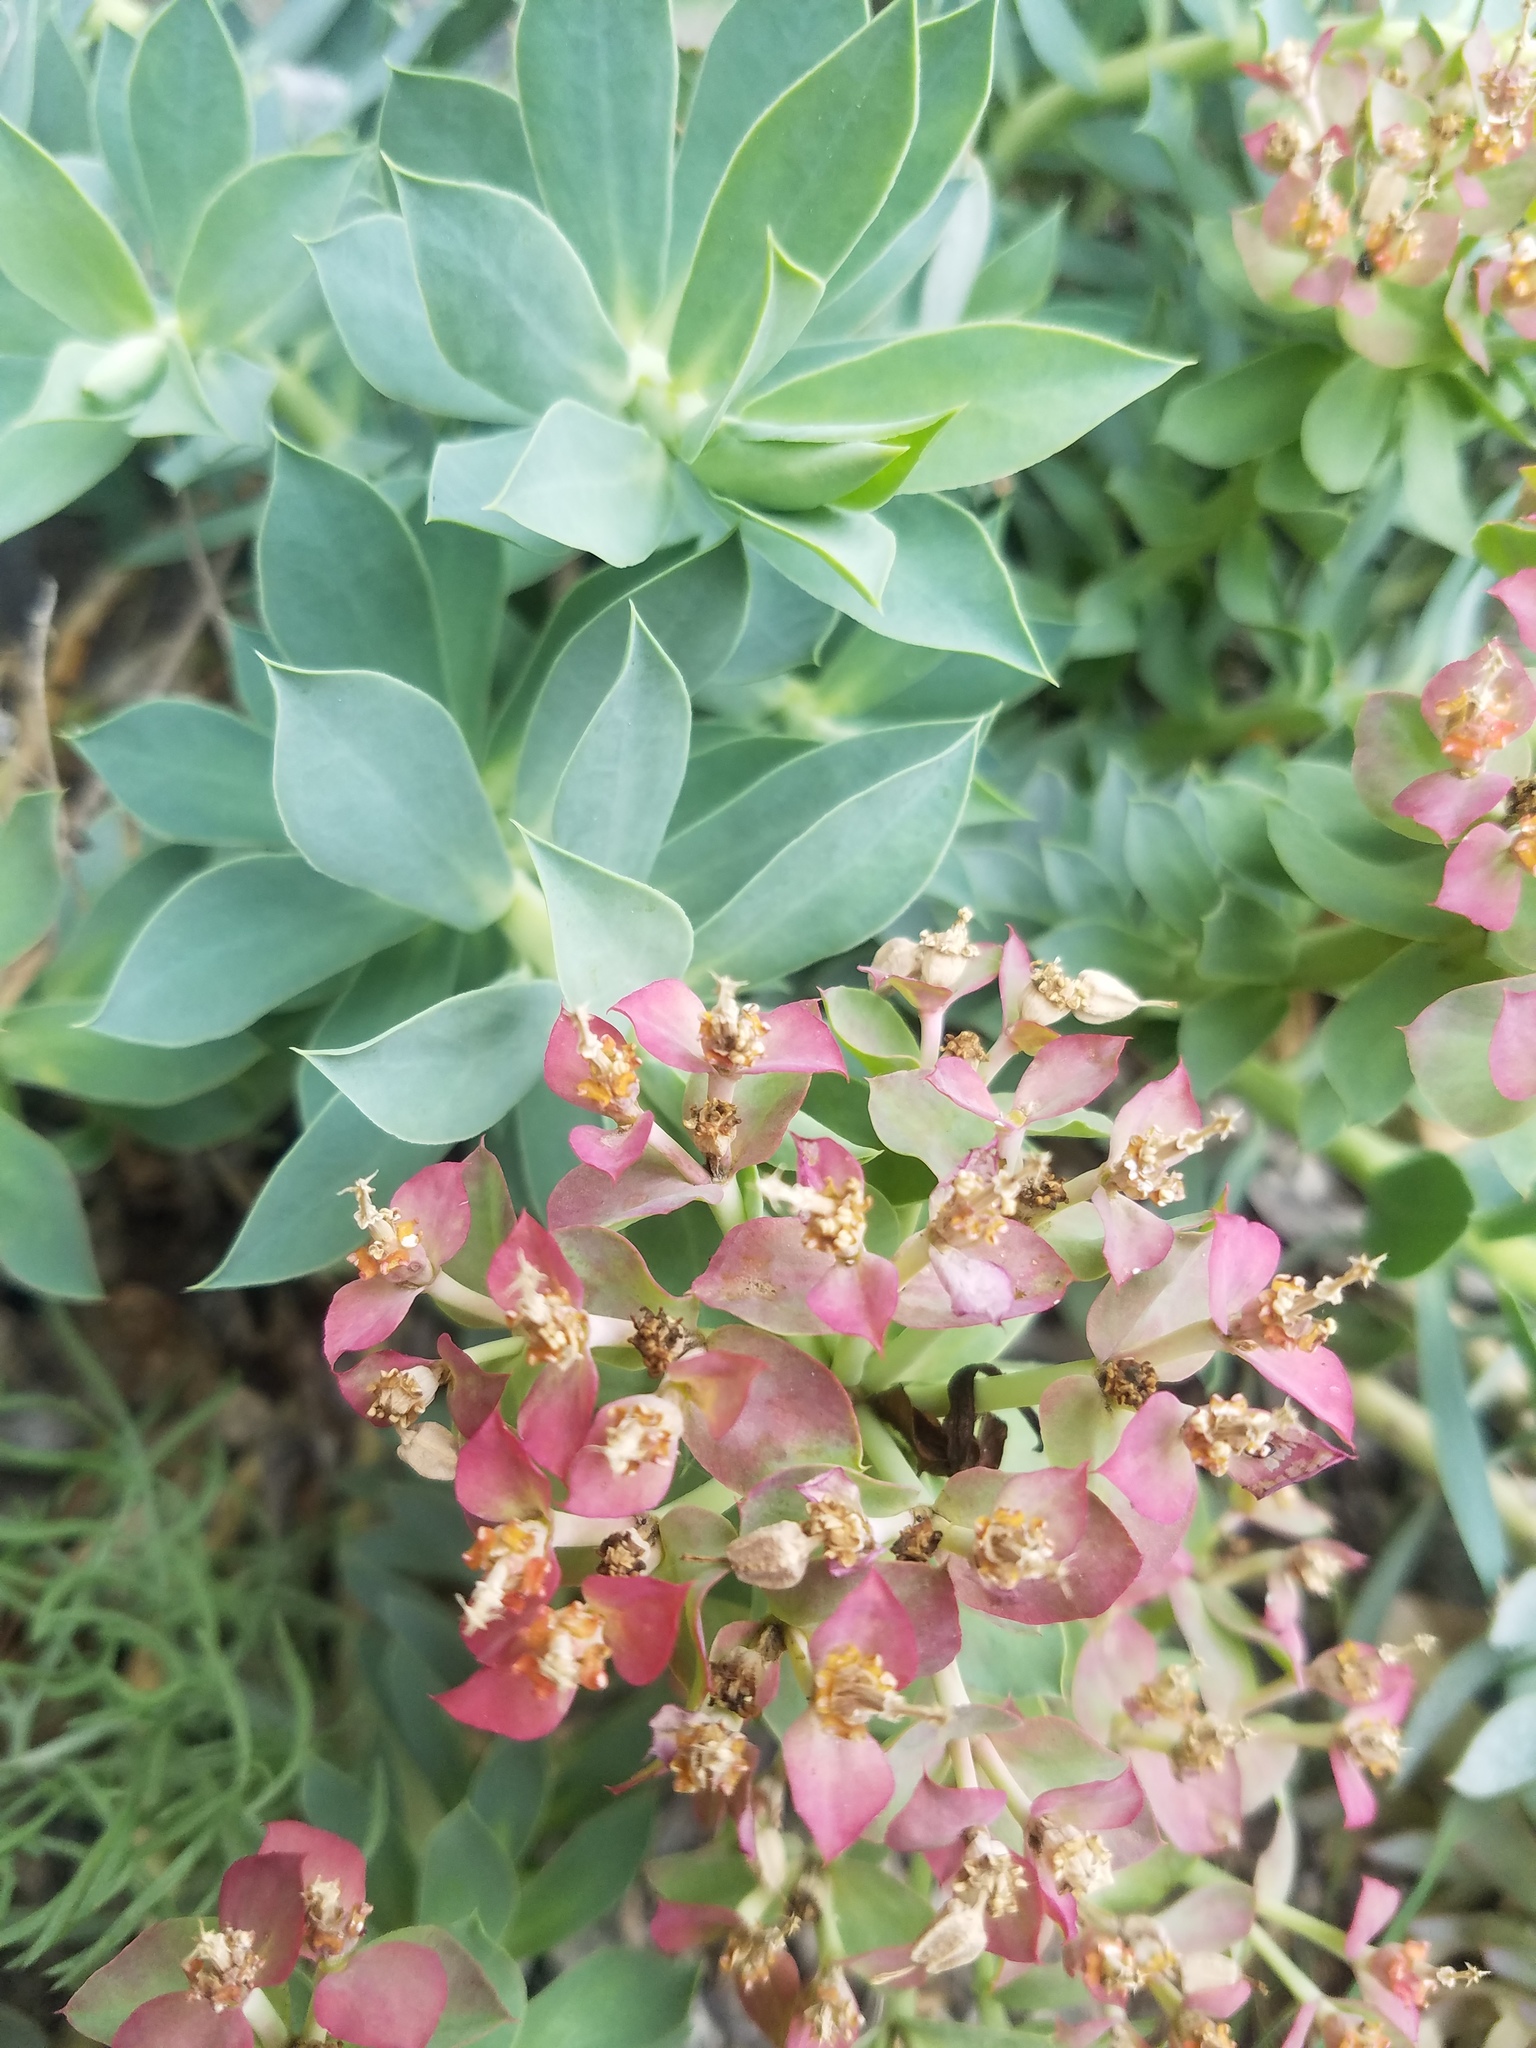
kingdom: Plantae
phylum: Tracheophyta
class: Magnoliopsida
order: Malpighiales
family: Euphorbiaceae
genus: Euphorbia
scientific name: Euphorbia myrsinites
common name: Myrtle spurge
